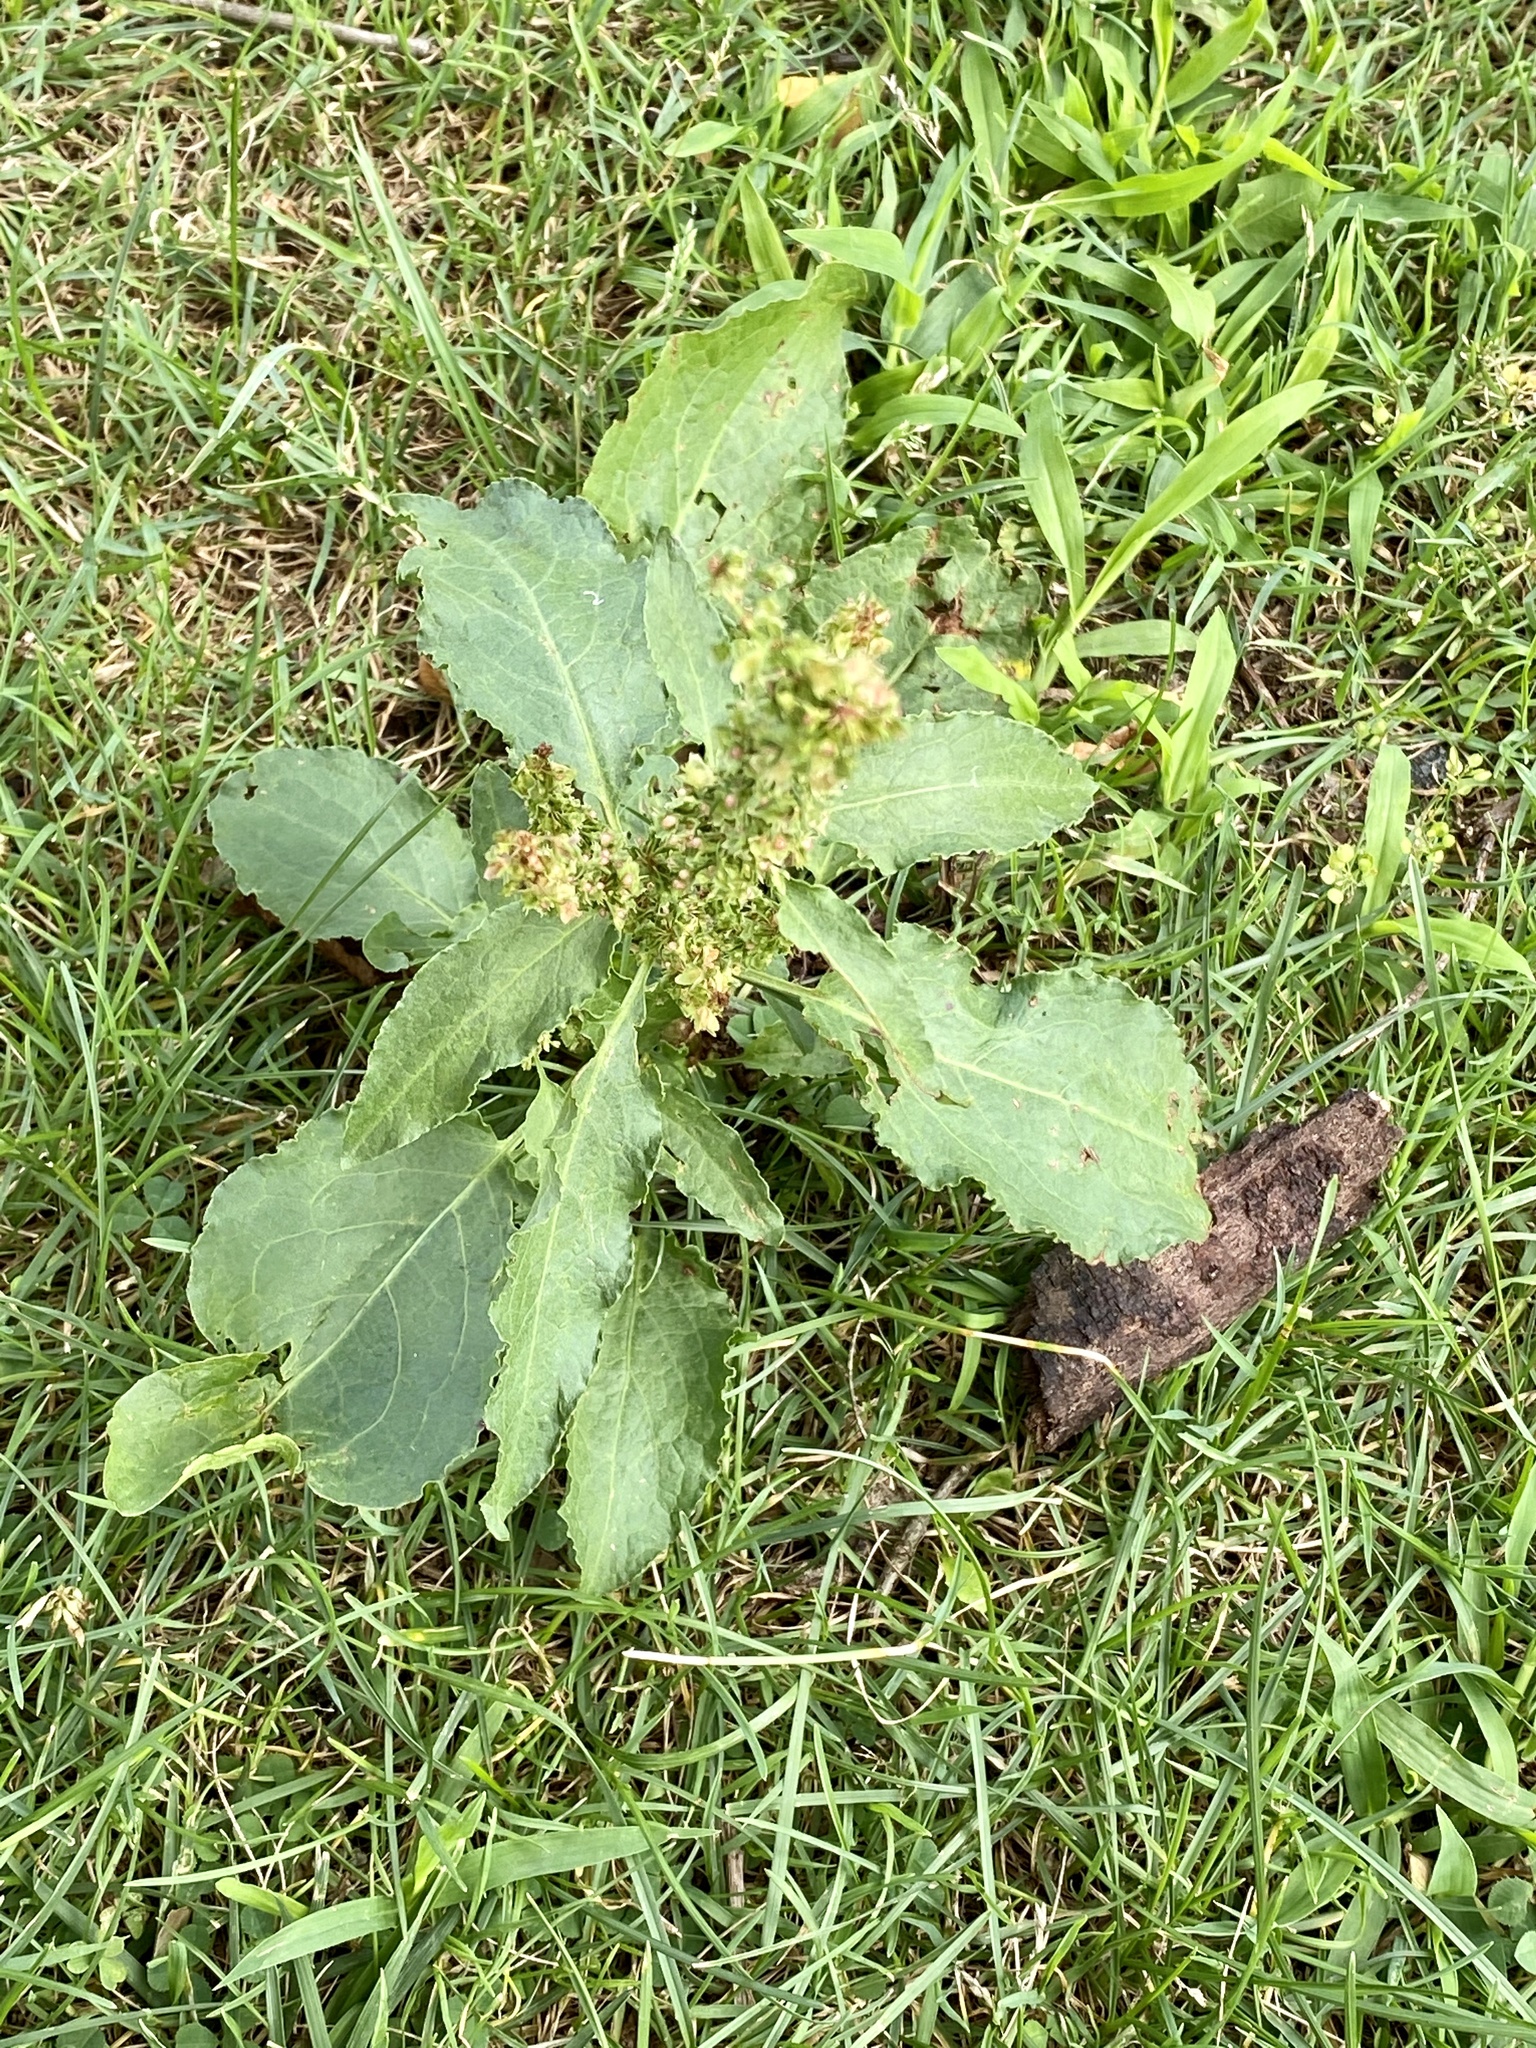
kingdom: Plantae
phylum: Tracheophyta
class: Magnoliopsida
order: Caryophyllales
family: Polygonaceae
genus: Rumex
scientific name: Rumex obtusifolius
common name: Bitter dock
